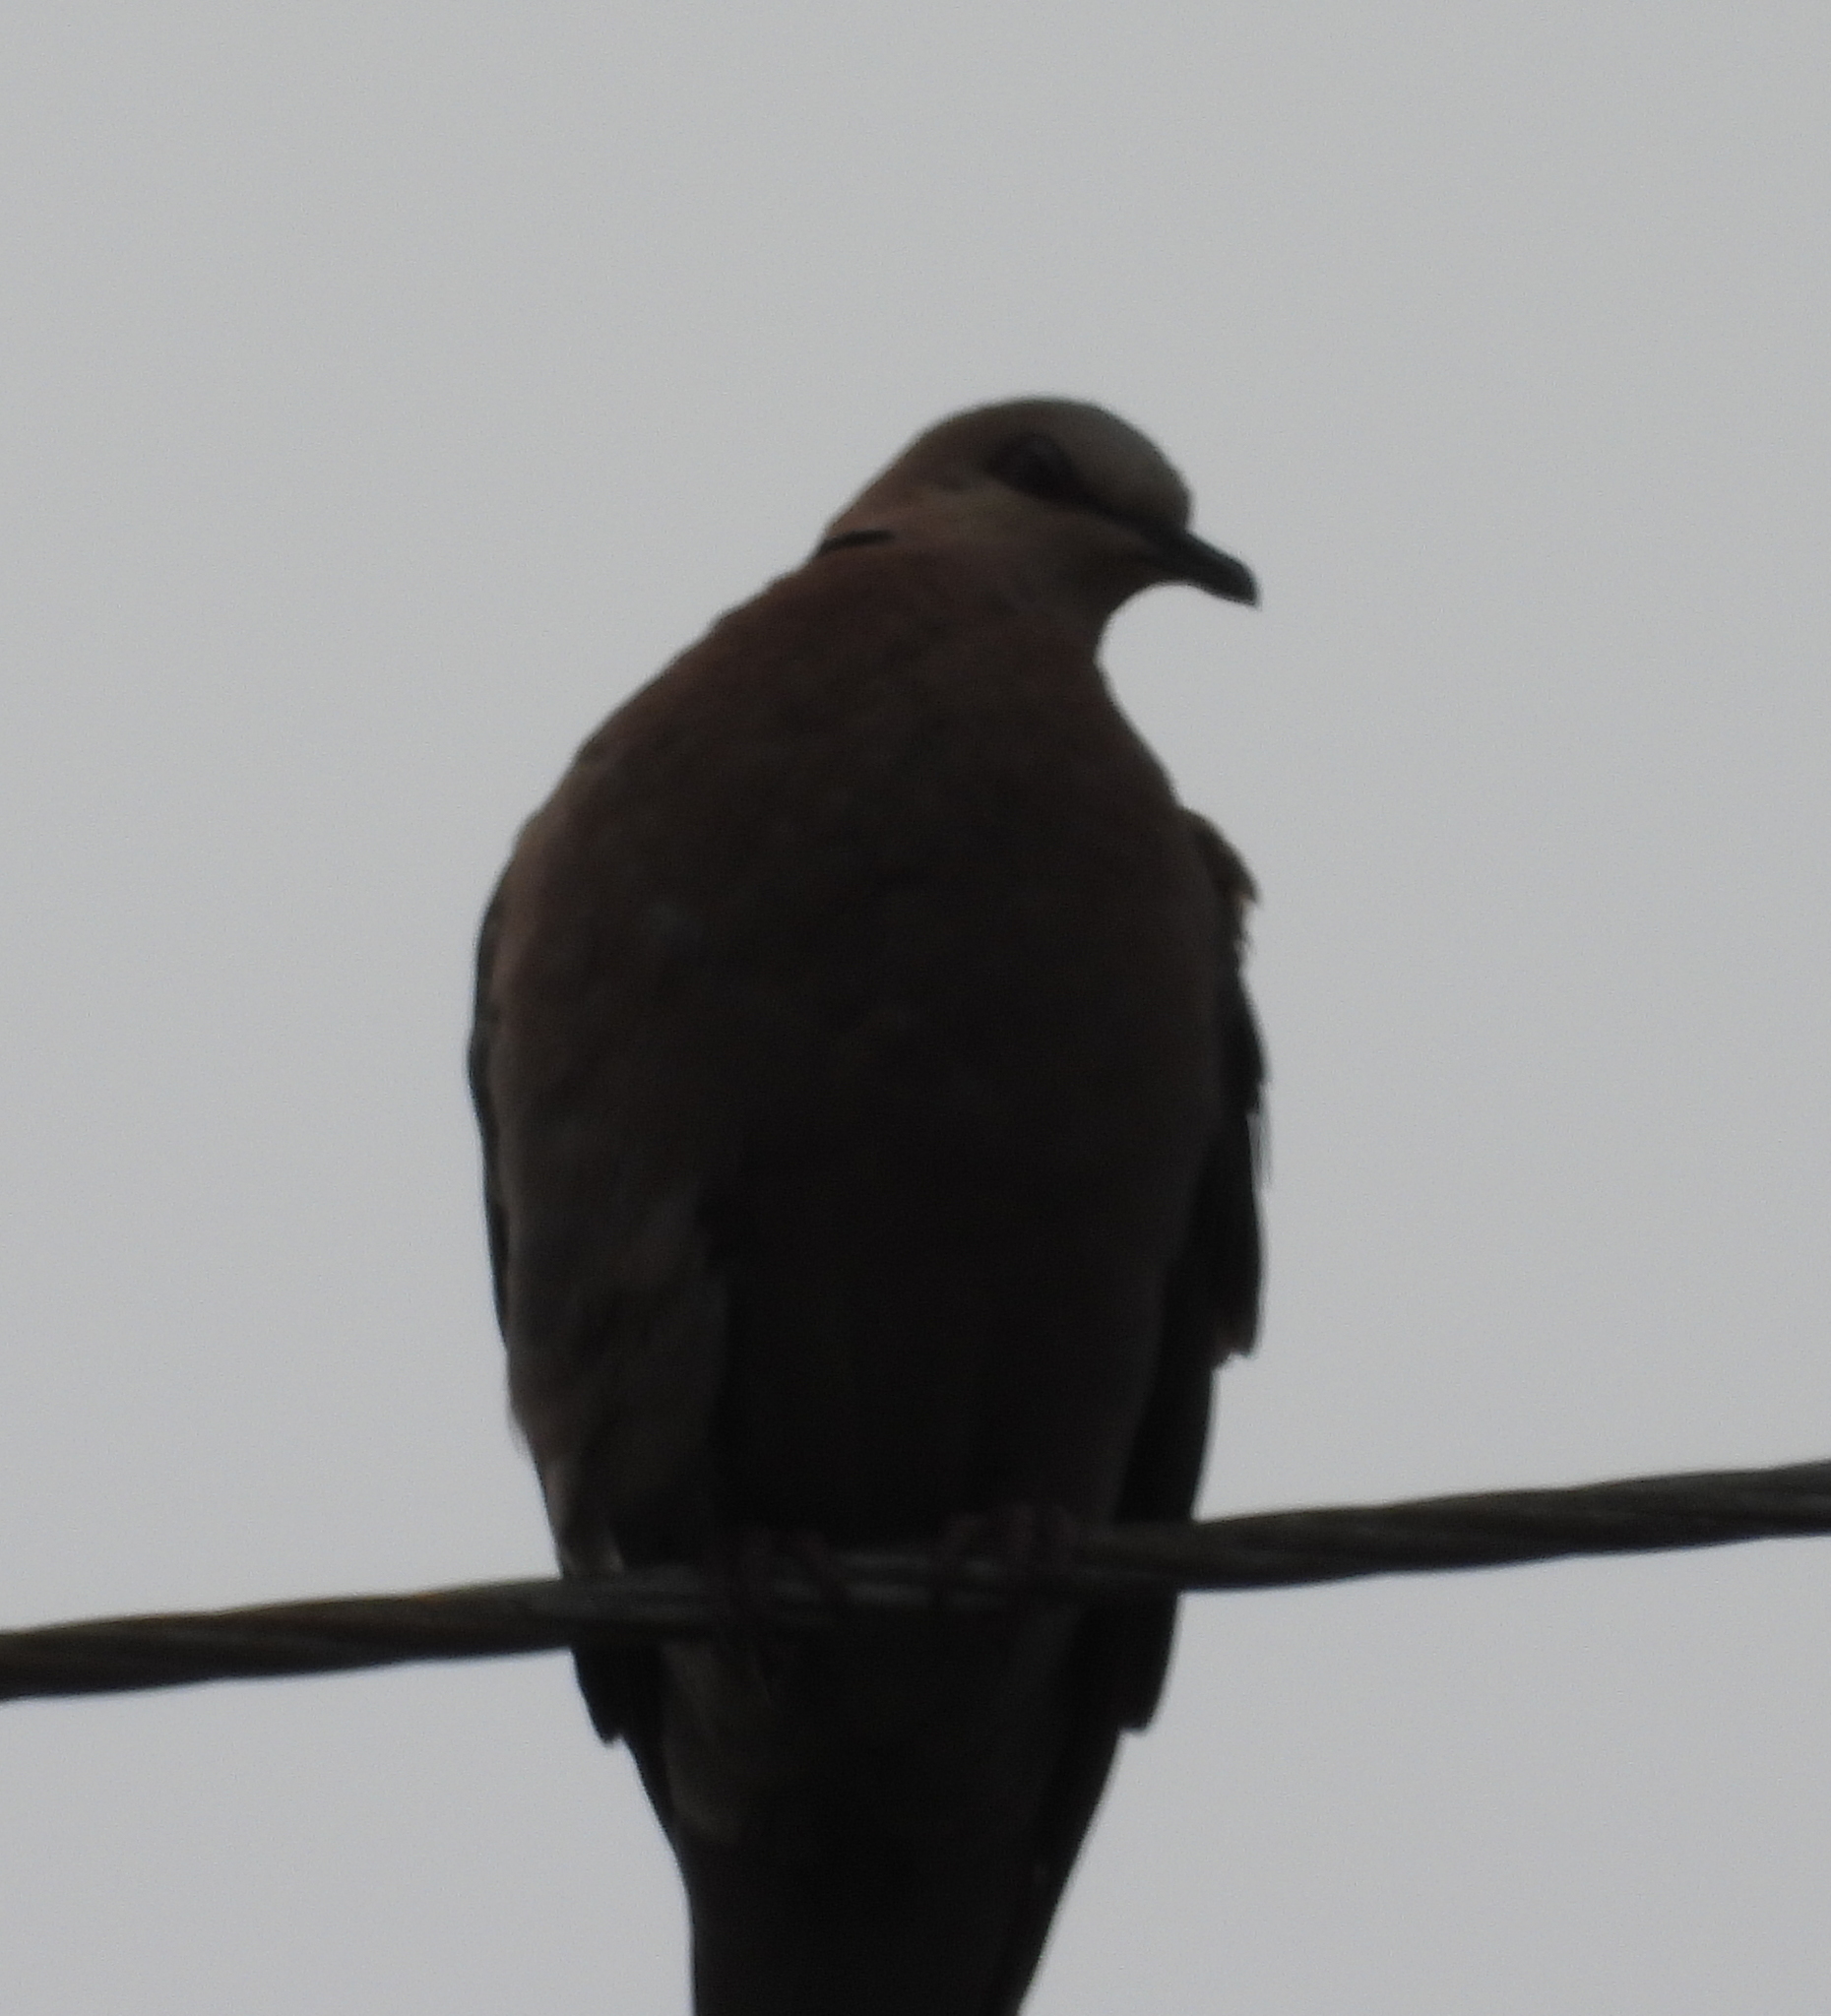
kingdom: Animalia
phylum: Chordata
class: Aves
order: Columbiformes
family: Columbidae
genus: Streptopelia
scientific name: Streptopelia semitorquata
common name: Red-eyed dove
